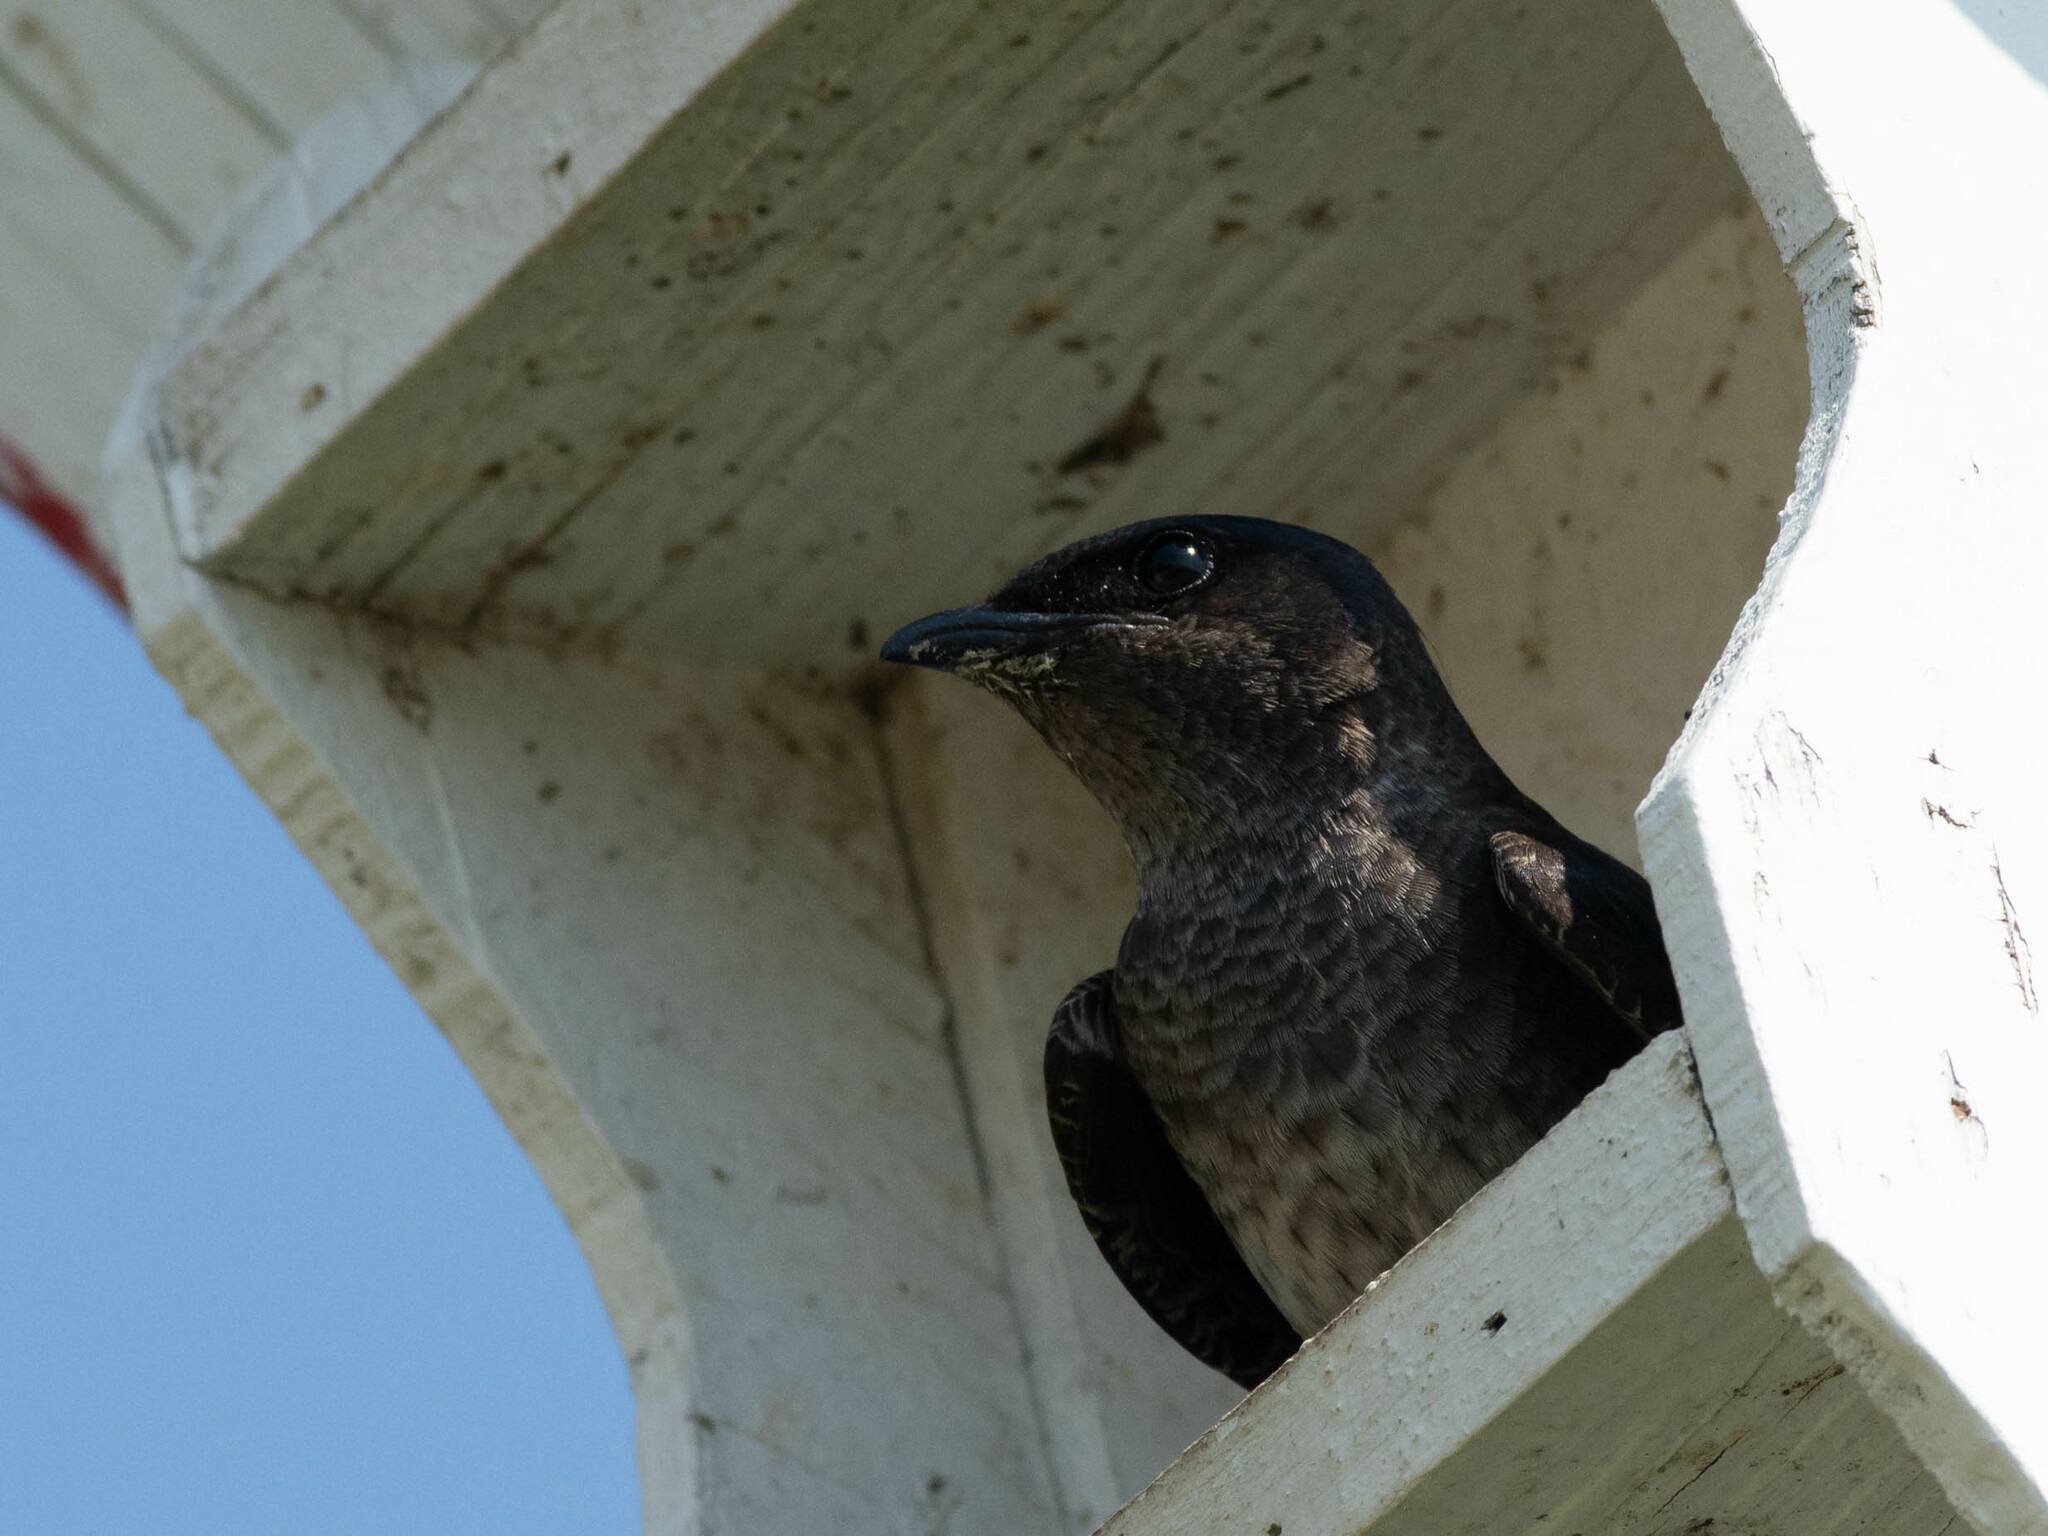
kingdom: Animalia
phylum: Chordata
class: Aves
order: Passeriformes
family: Hirundinidae
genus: Progne
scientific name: Progne subis
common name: Purple martin
